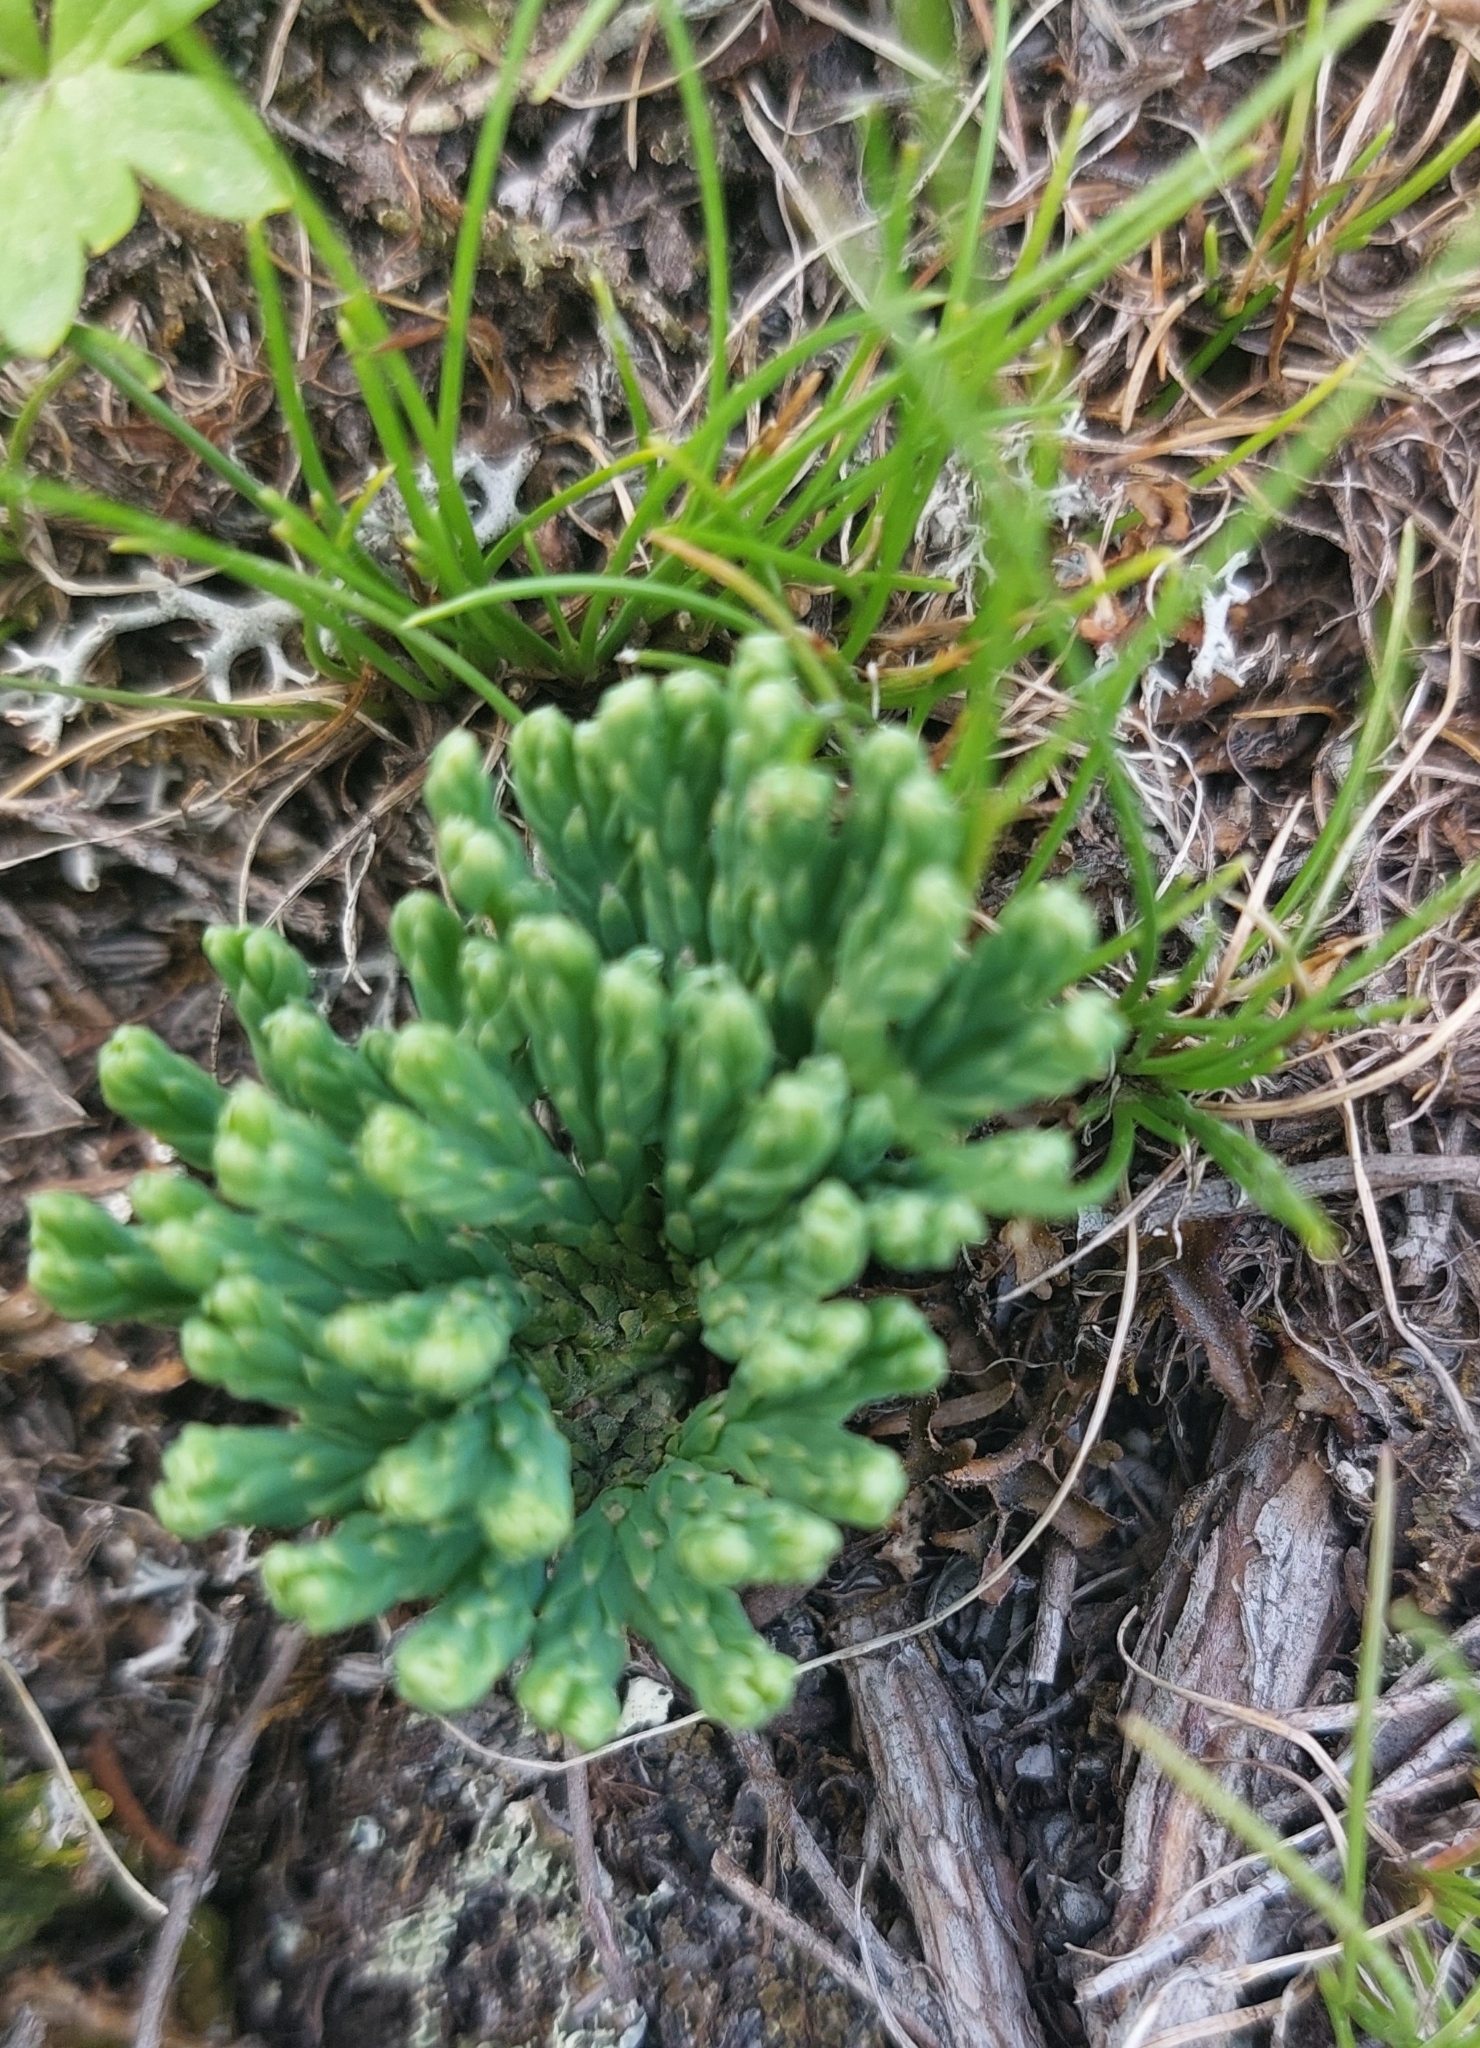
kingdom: Plantae
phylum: Tracheophyta
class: Lycopodiopsida
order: Lycopodiales
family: Lycopodiaceae
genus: Diphasiastrum
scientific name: Diphasiastrum alpinum
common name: Alpine clubmoss
